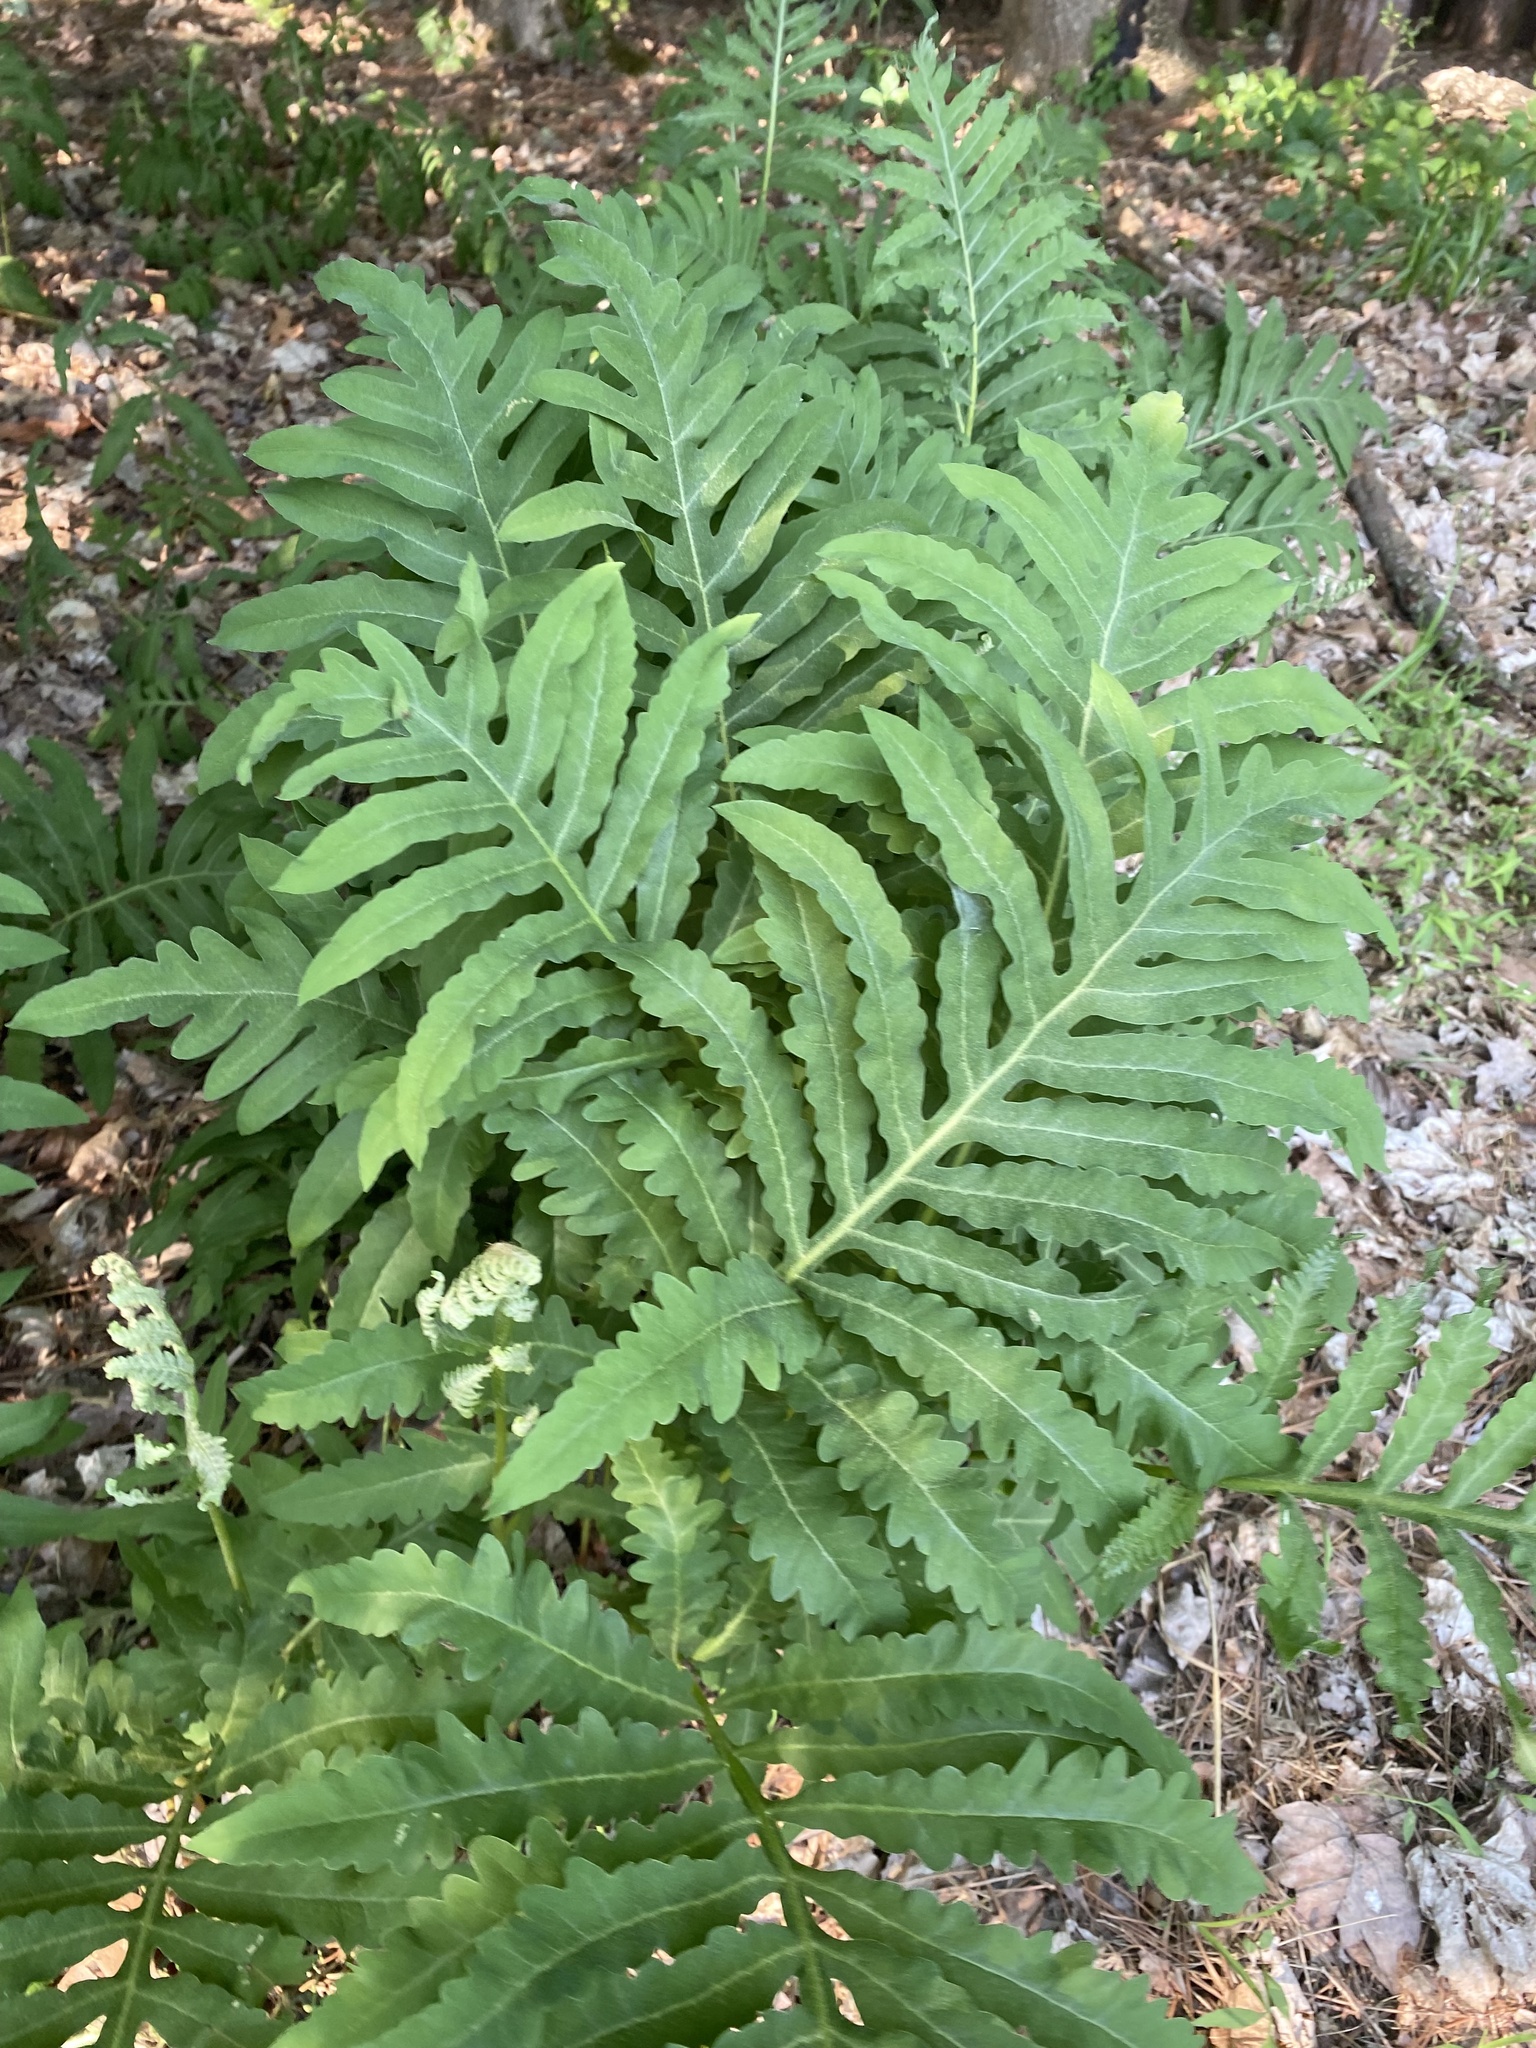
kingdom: Plantae
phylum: Tracheophyta
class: Polypodiopsida
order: Polypodiales
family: Onocleaceae
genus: Onoclea
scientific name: Onoclea sensibilis
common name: Sensitive fern
